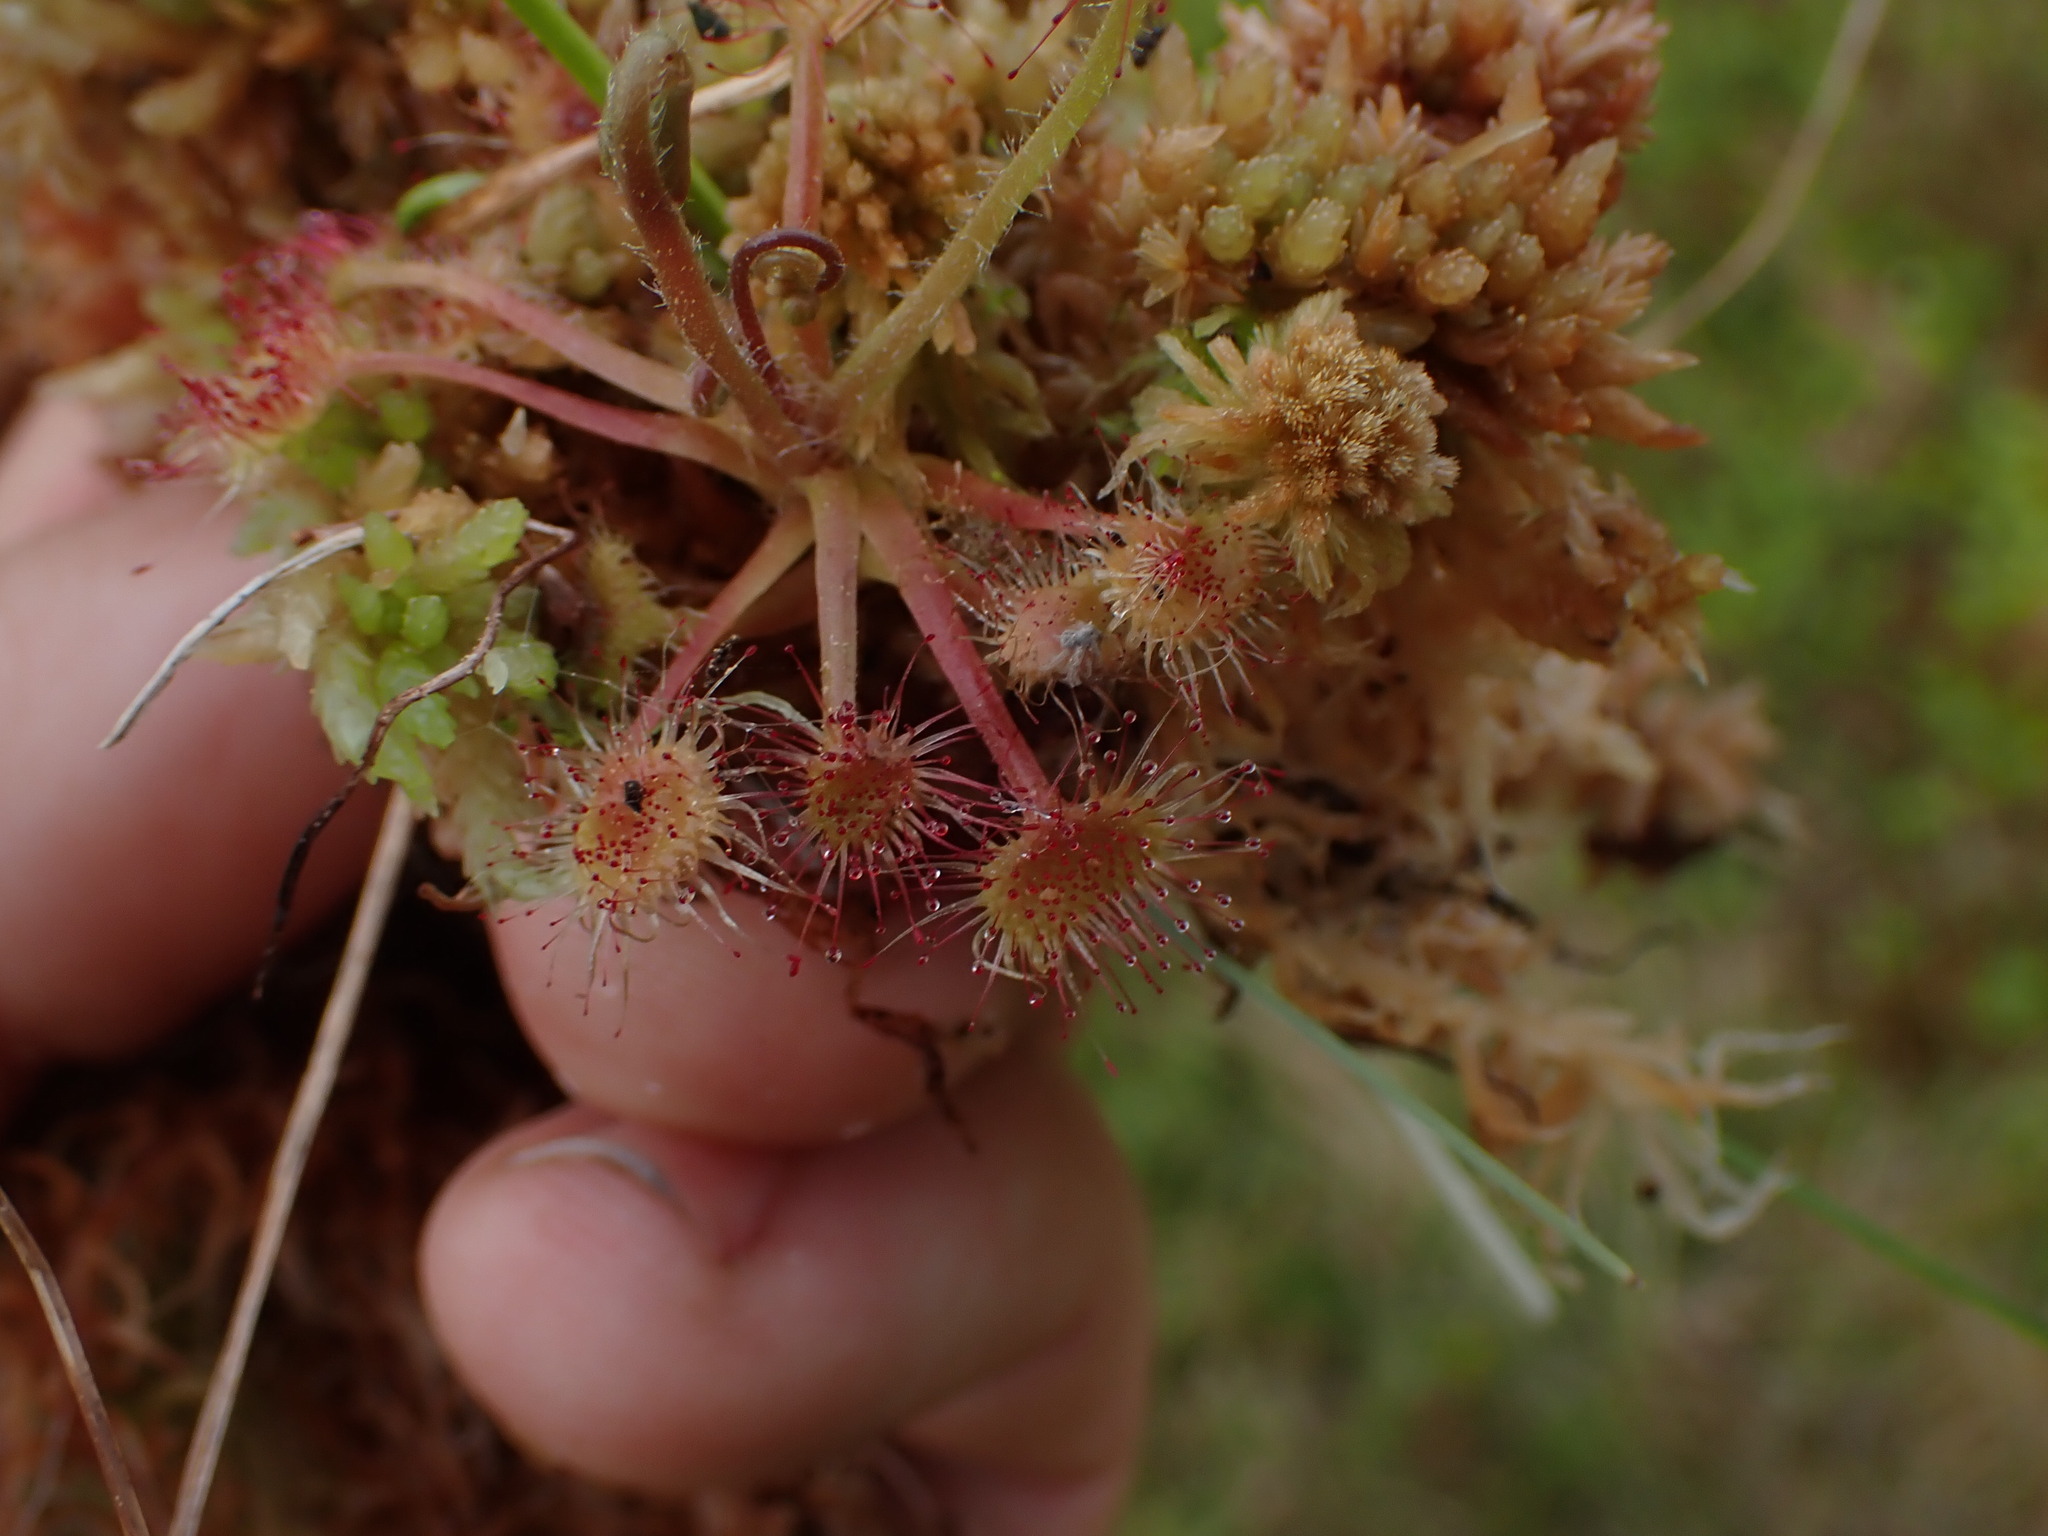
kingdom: Plantae
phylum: Tracheophyta
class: Magnoliopsida
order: Caryophyllales
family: Droseraceae
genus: Drosera
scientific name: Drosera rotundifolia
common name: Round-leaved sundew
